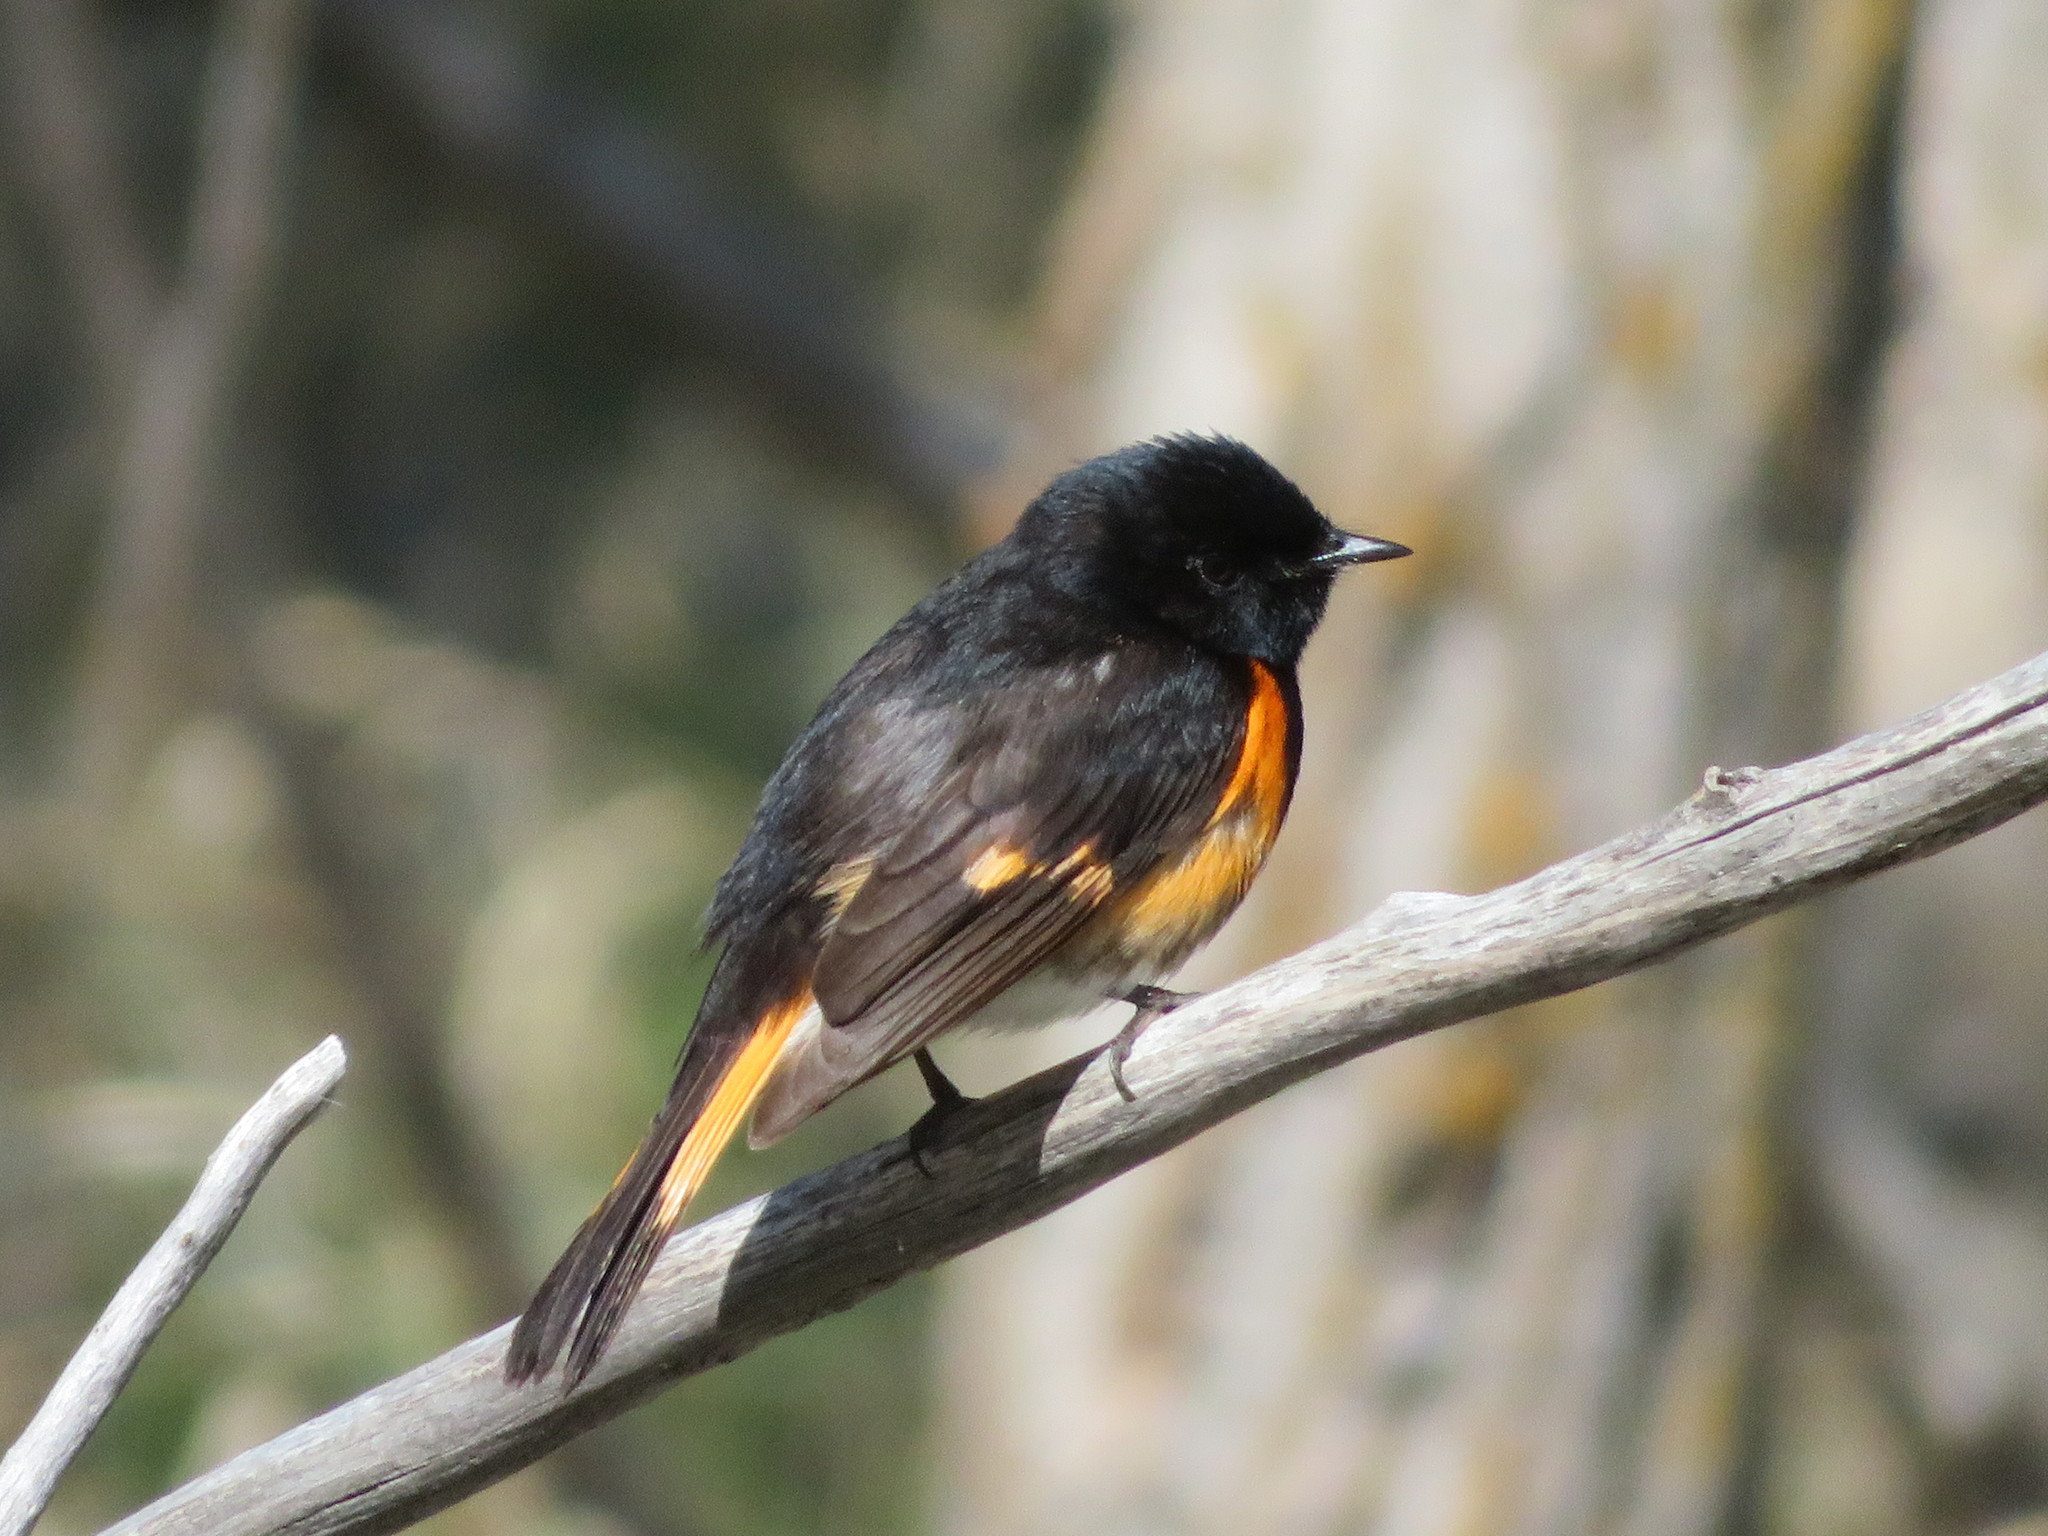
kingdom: Animalia
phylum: Chordata
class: Aves
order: Passeriformes
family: Parulidae
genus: Setophaga
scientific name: Setophaga ruticilla
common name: American redstart
